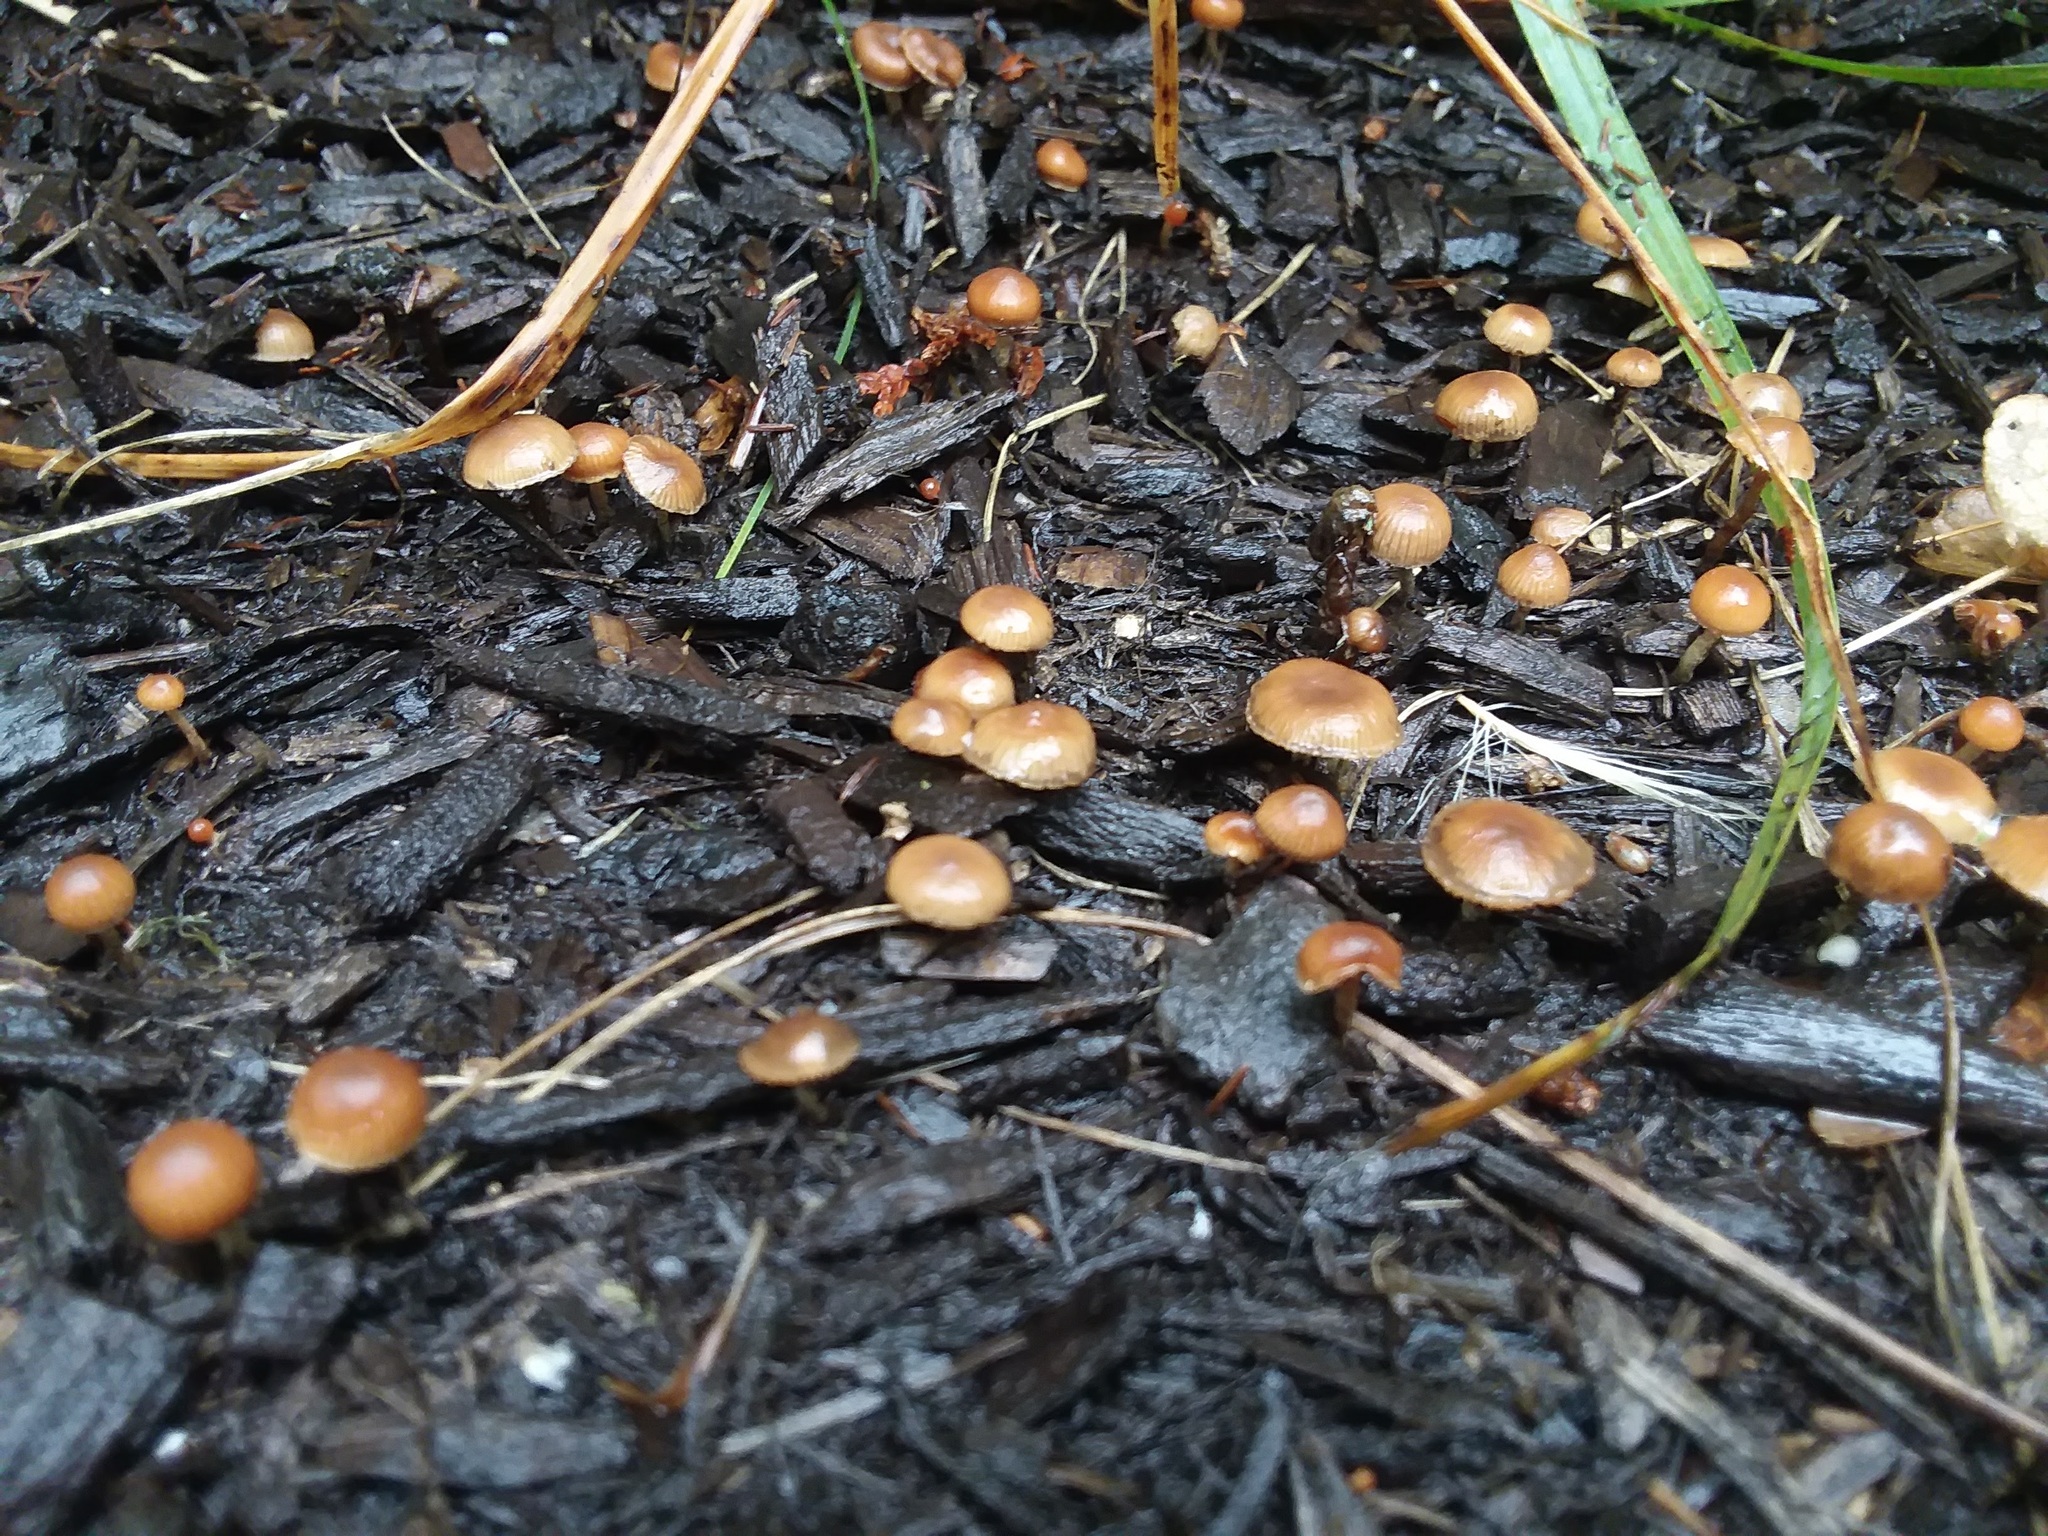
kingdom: Fungi
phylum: Basidiomycota
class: Agaricomycetes
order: Agaricales
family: Hymenogastraceae
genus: Psilocybe
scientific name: Psilocybe subviscida
